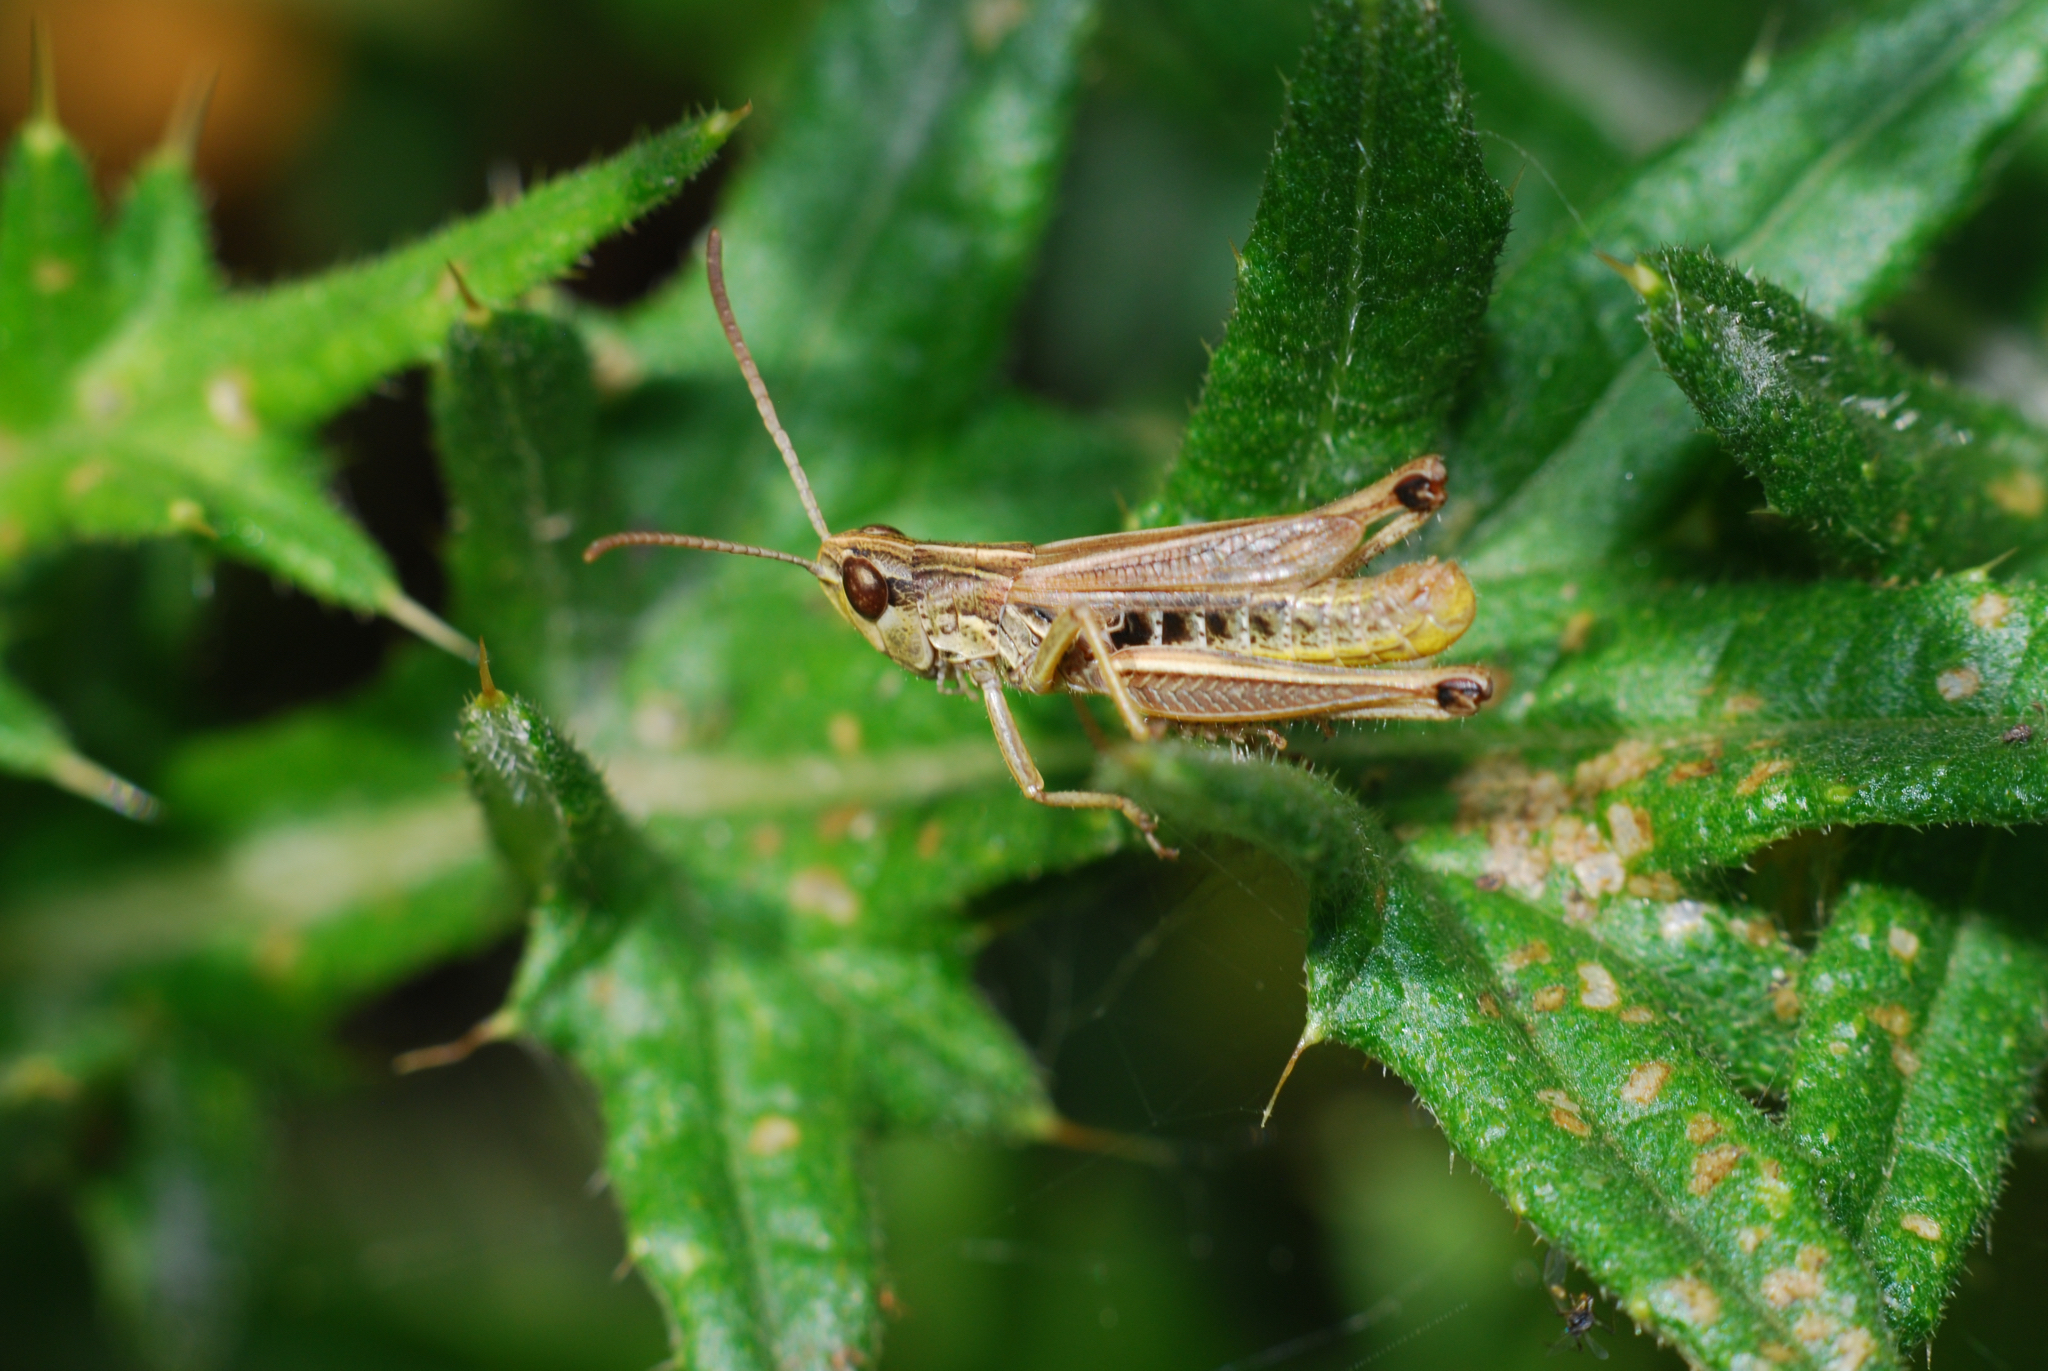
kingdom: Animalia
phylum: Arthropoda
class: Insecta
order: Orthoptera
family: Acrididae
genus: Pseudochorthippus
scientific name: Pseudochorthippus parallelus
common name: Meadow grasshopper
